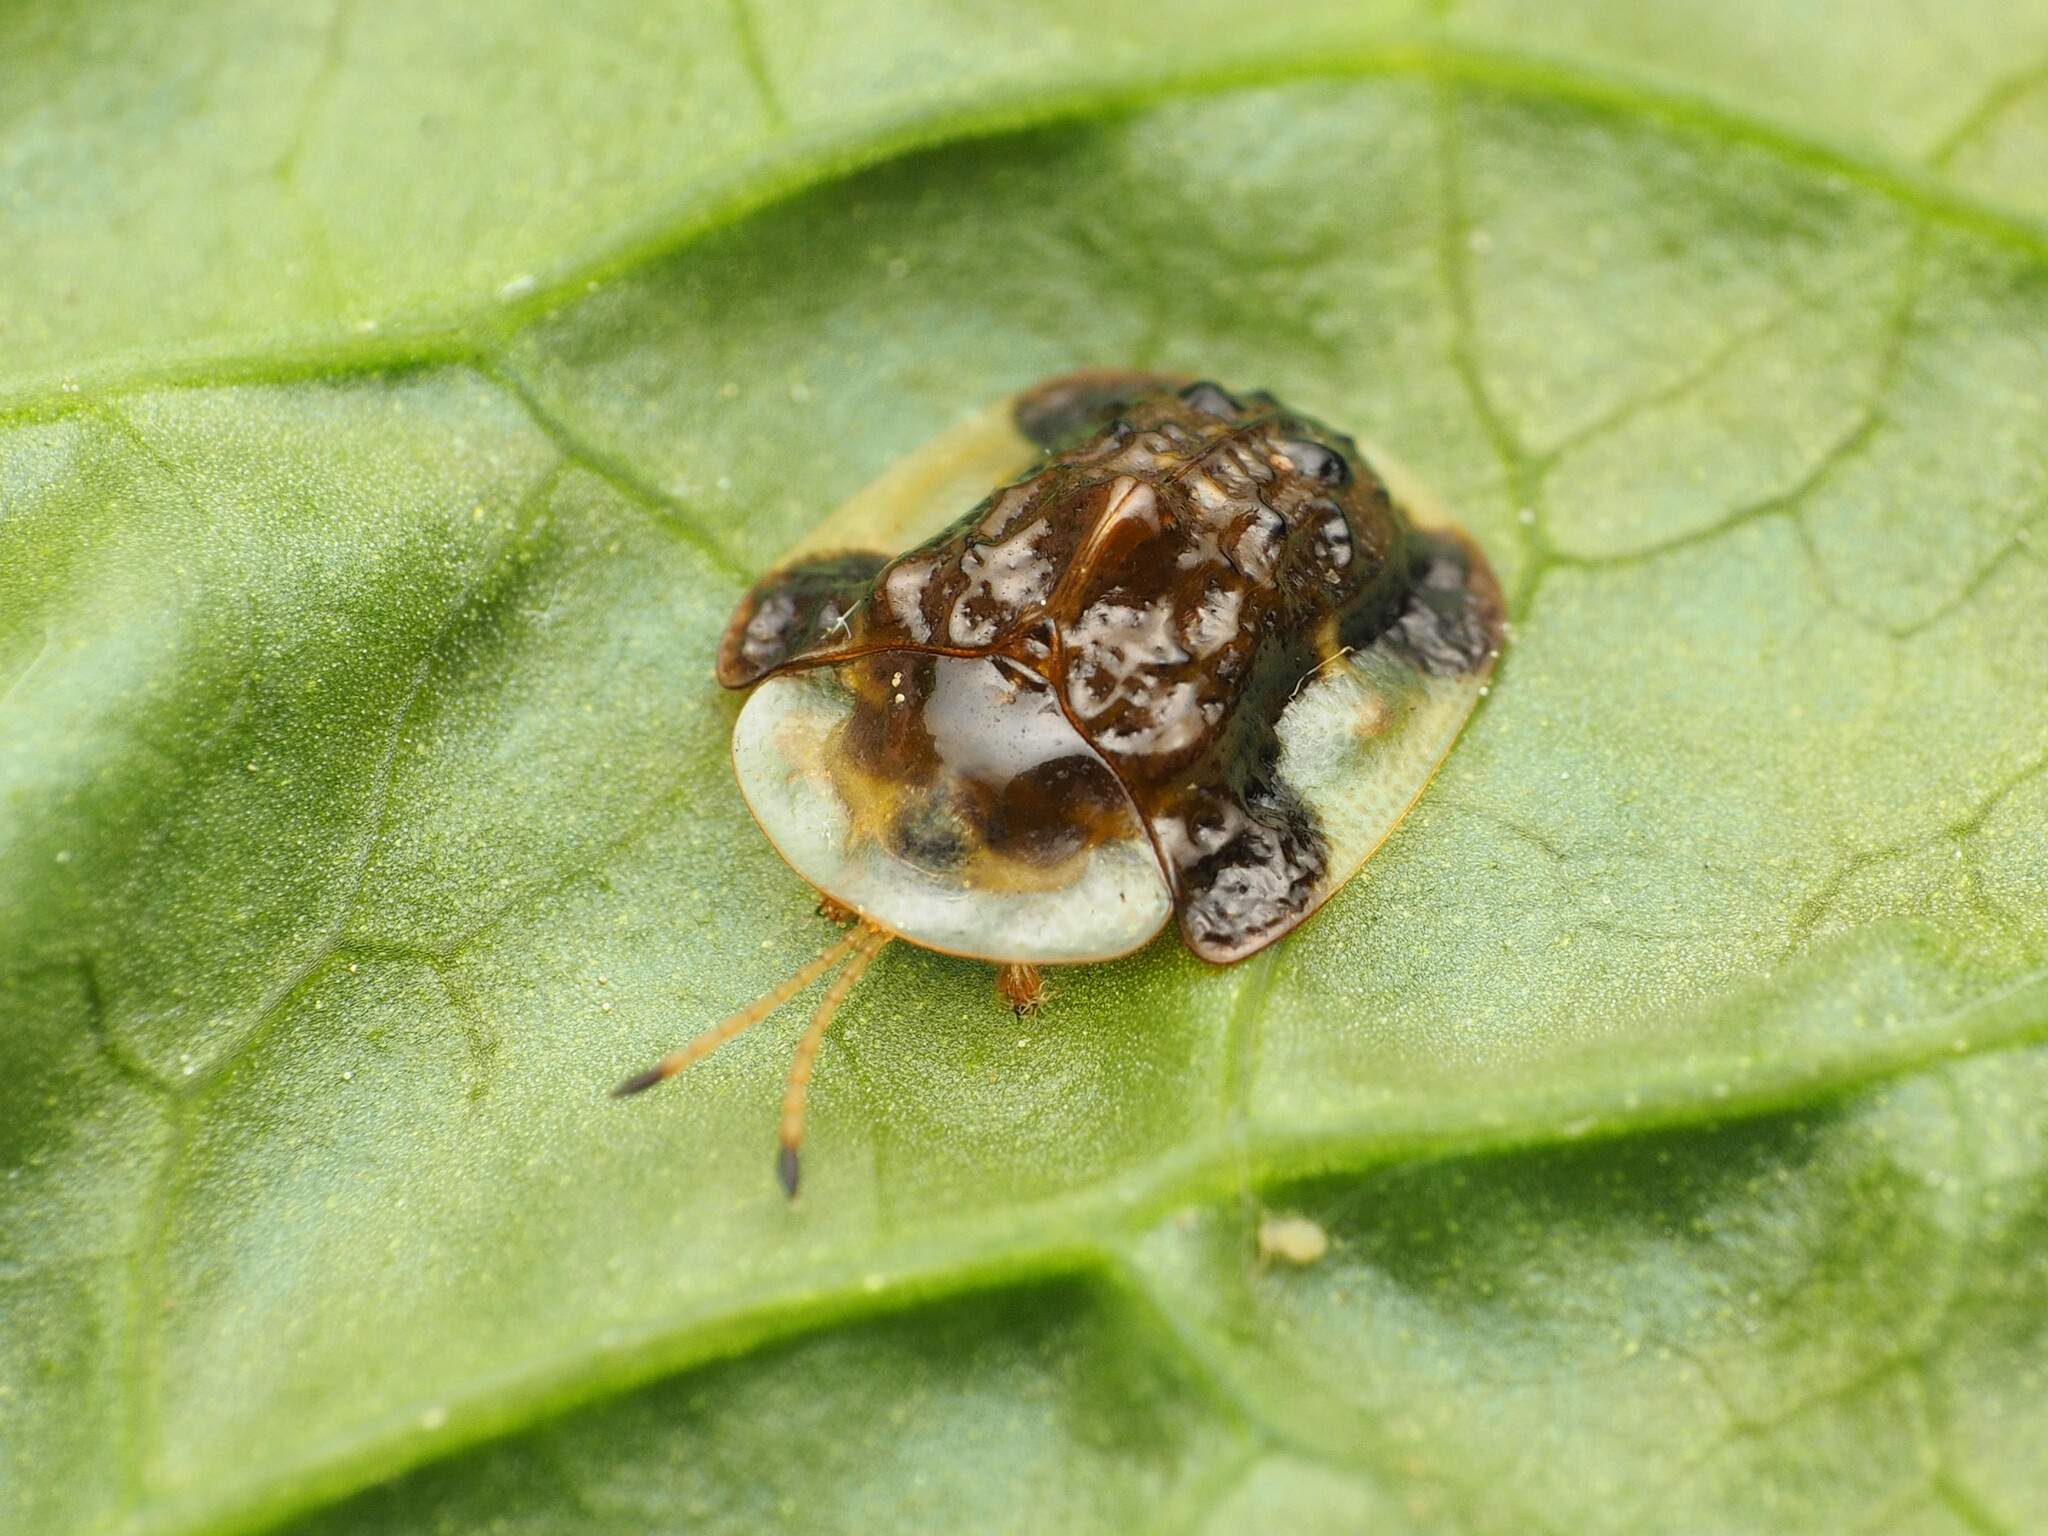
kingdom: Animalia
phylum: Arthropoda
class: Insecta
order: Coleoptera
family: Chrysomelidae
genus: Helocassis
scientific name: Helocassis clavata
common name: Clavate tortoise beetle
